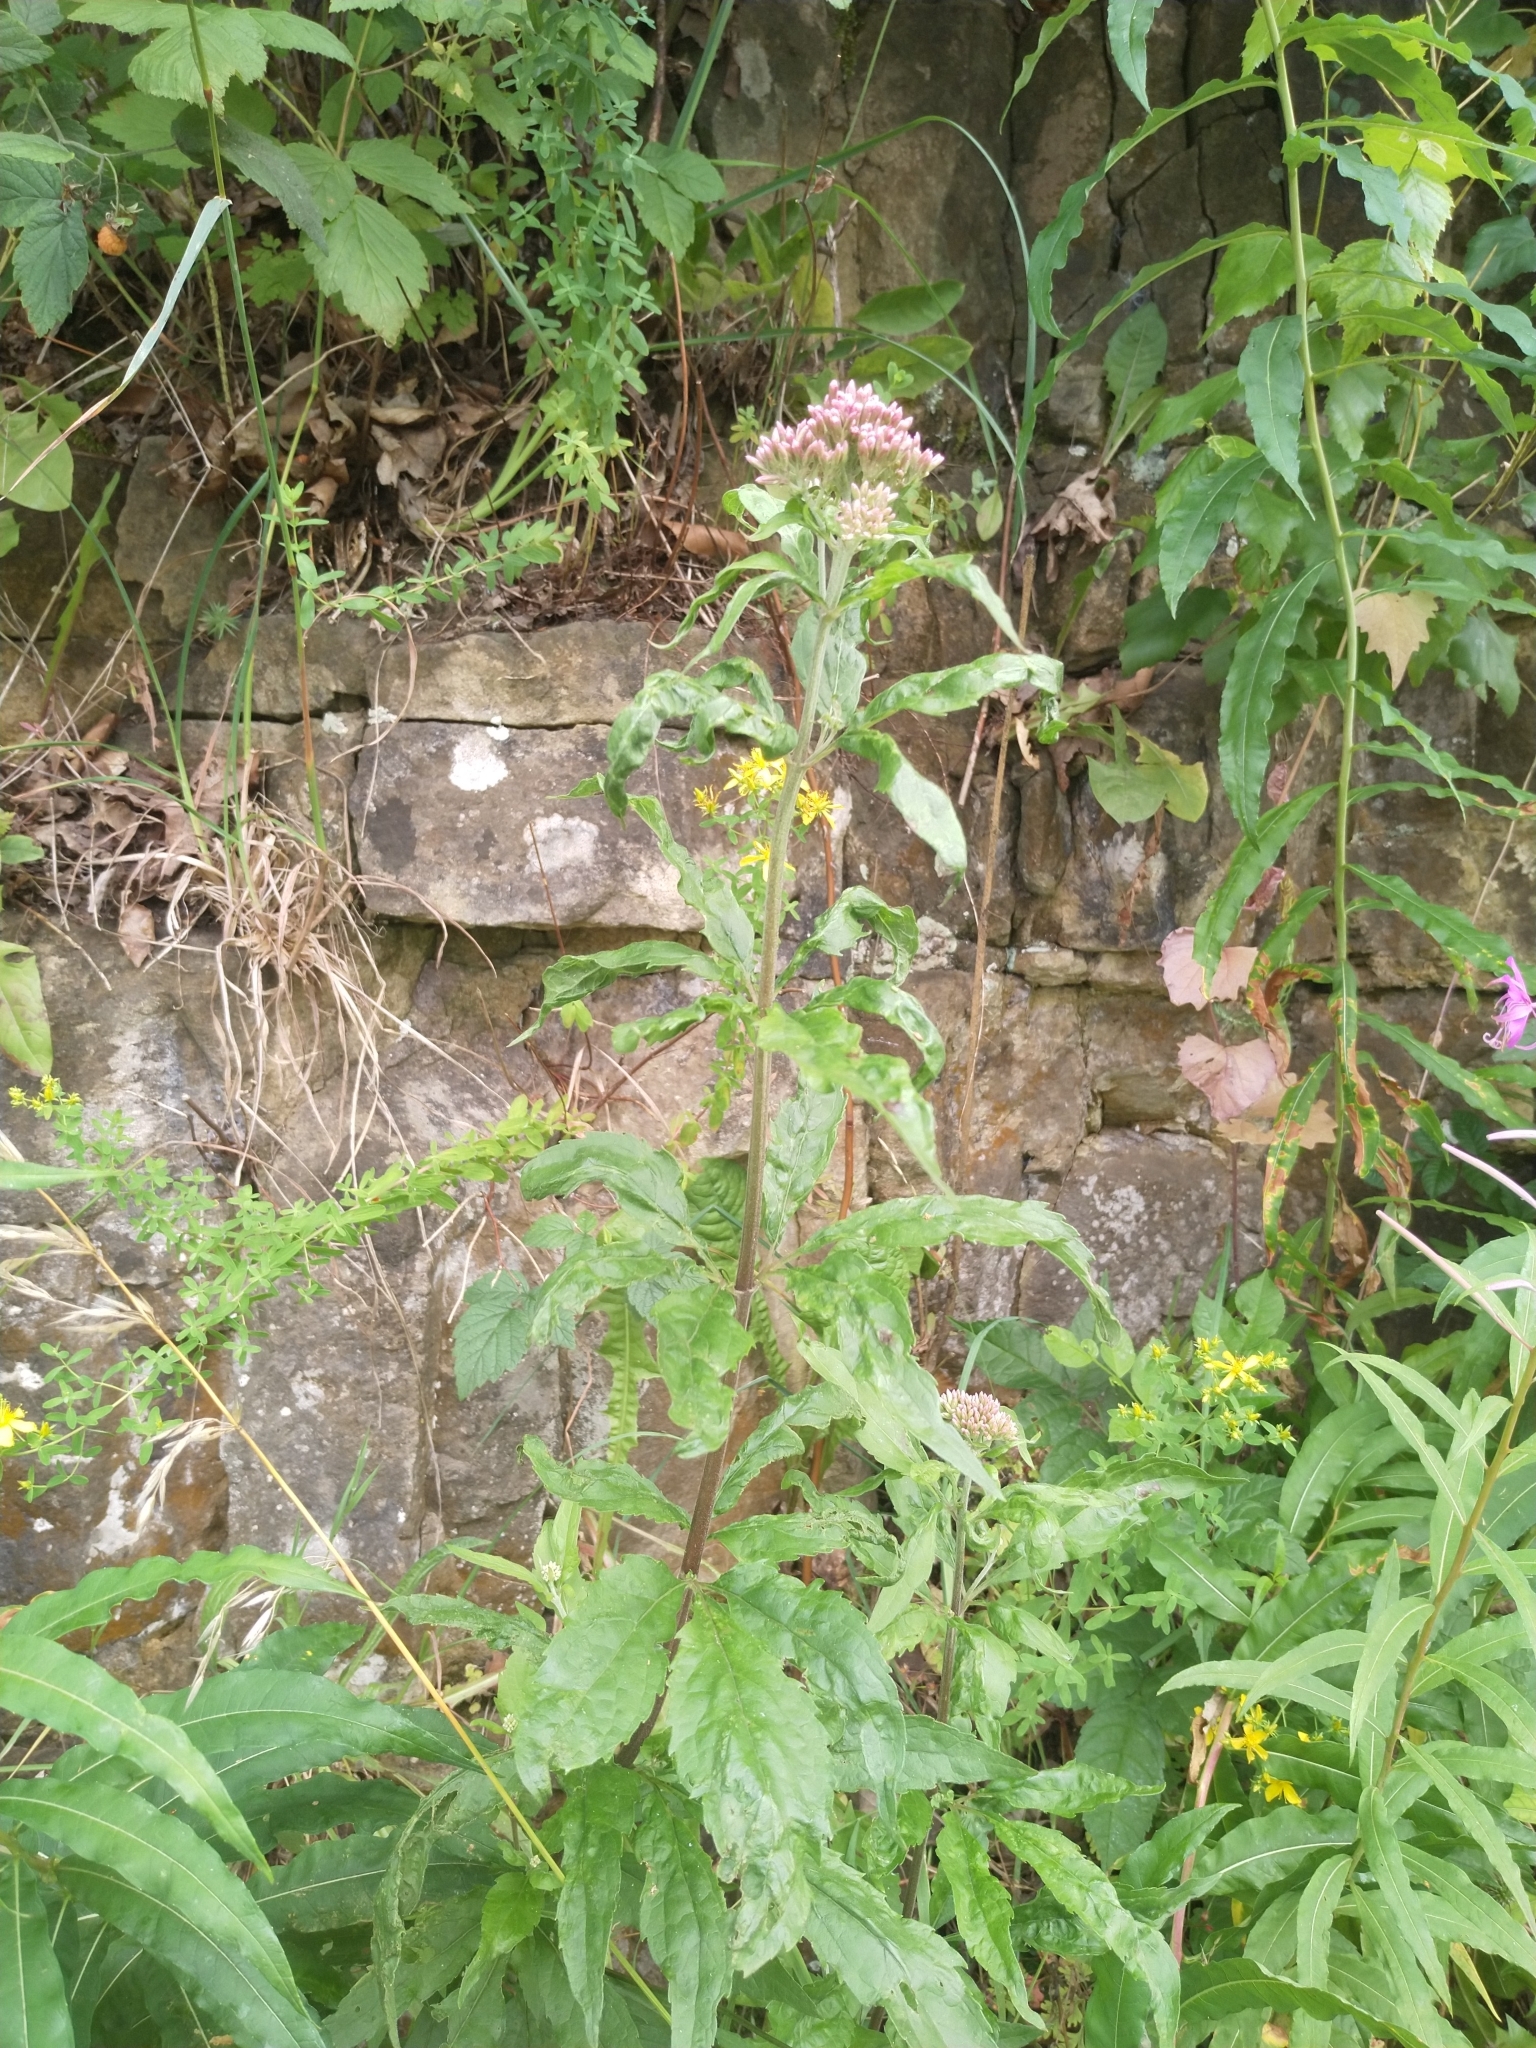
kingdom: Plantae
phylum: Tracheophyta
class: Magnoliopsida
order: Asterales
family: Asteraceae
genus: Eupatorium
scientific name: Eupatorium cannabinum
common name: Hemp-agrimony
